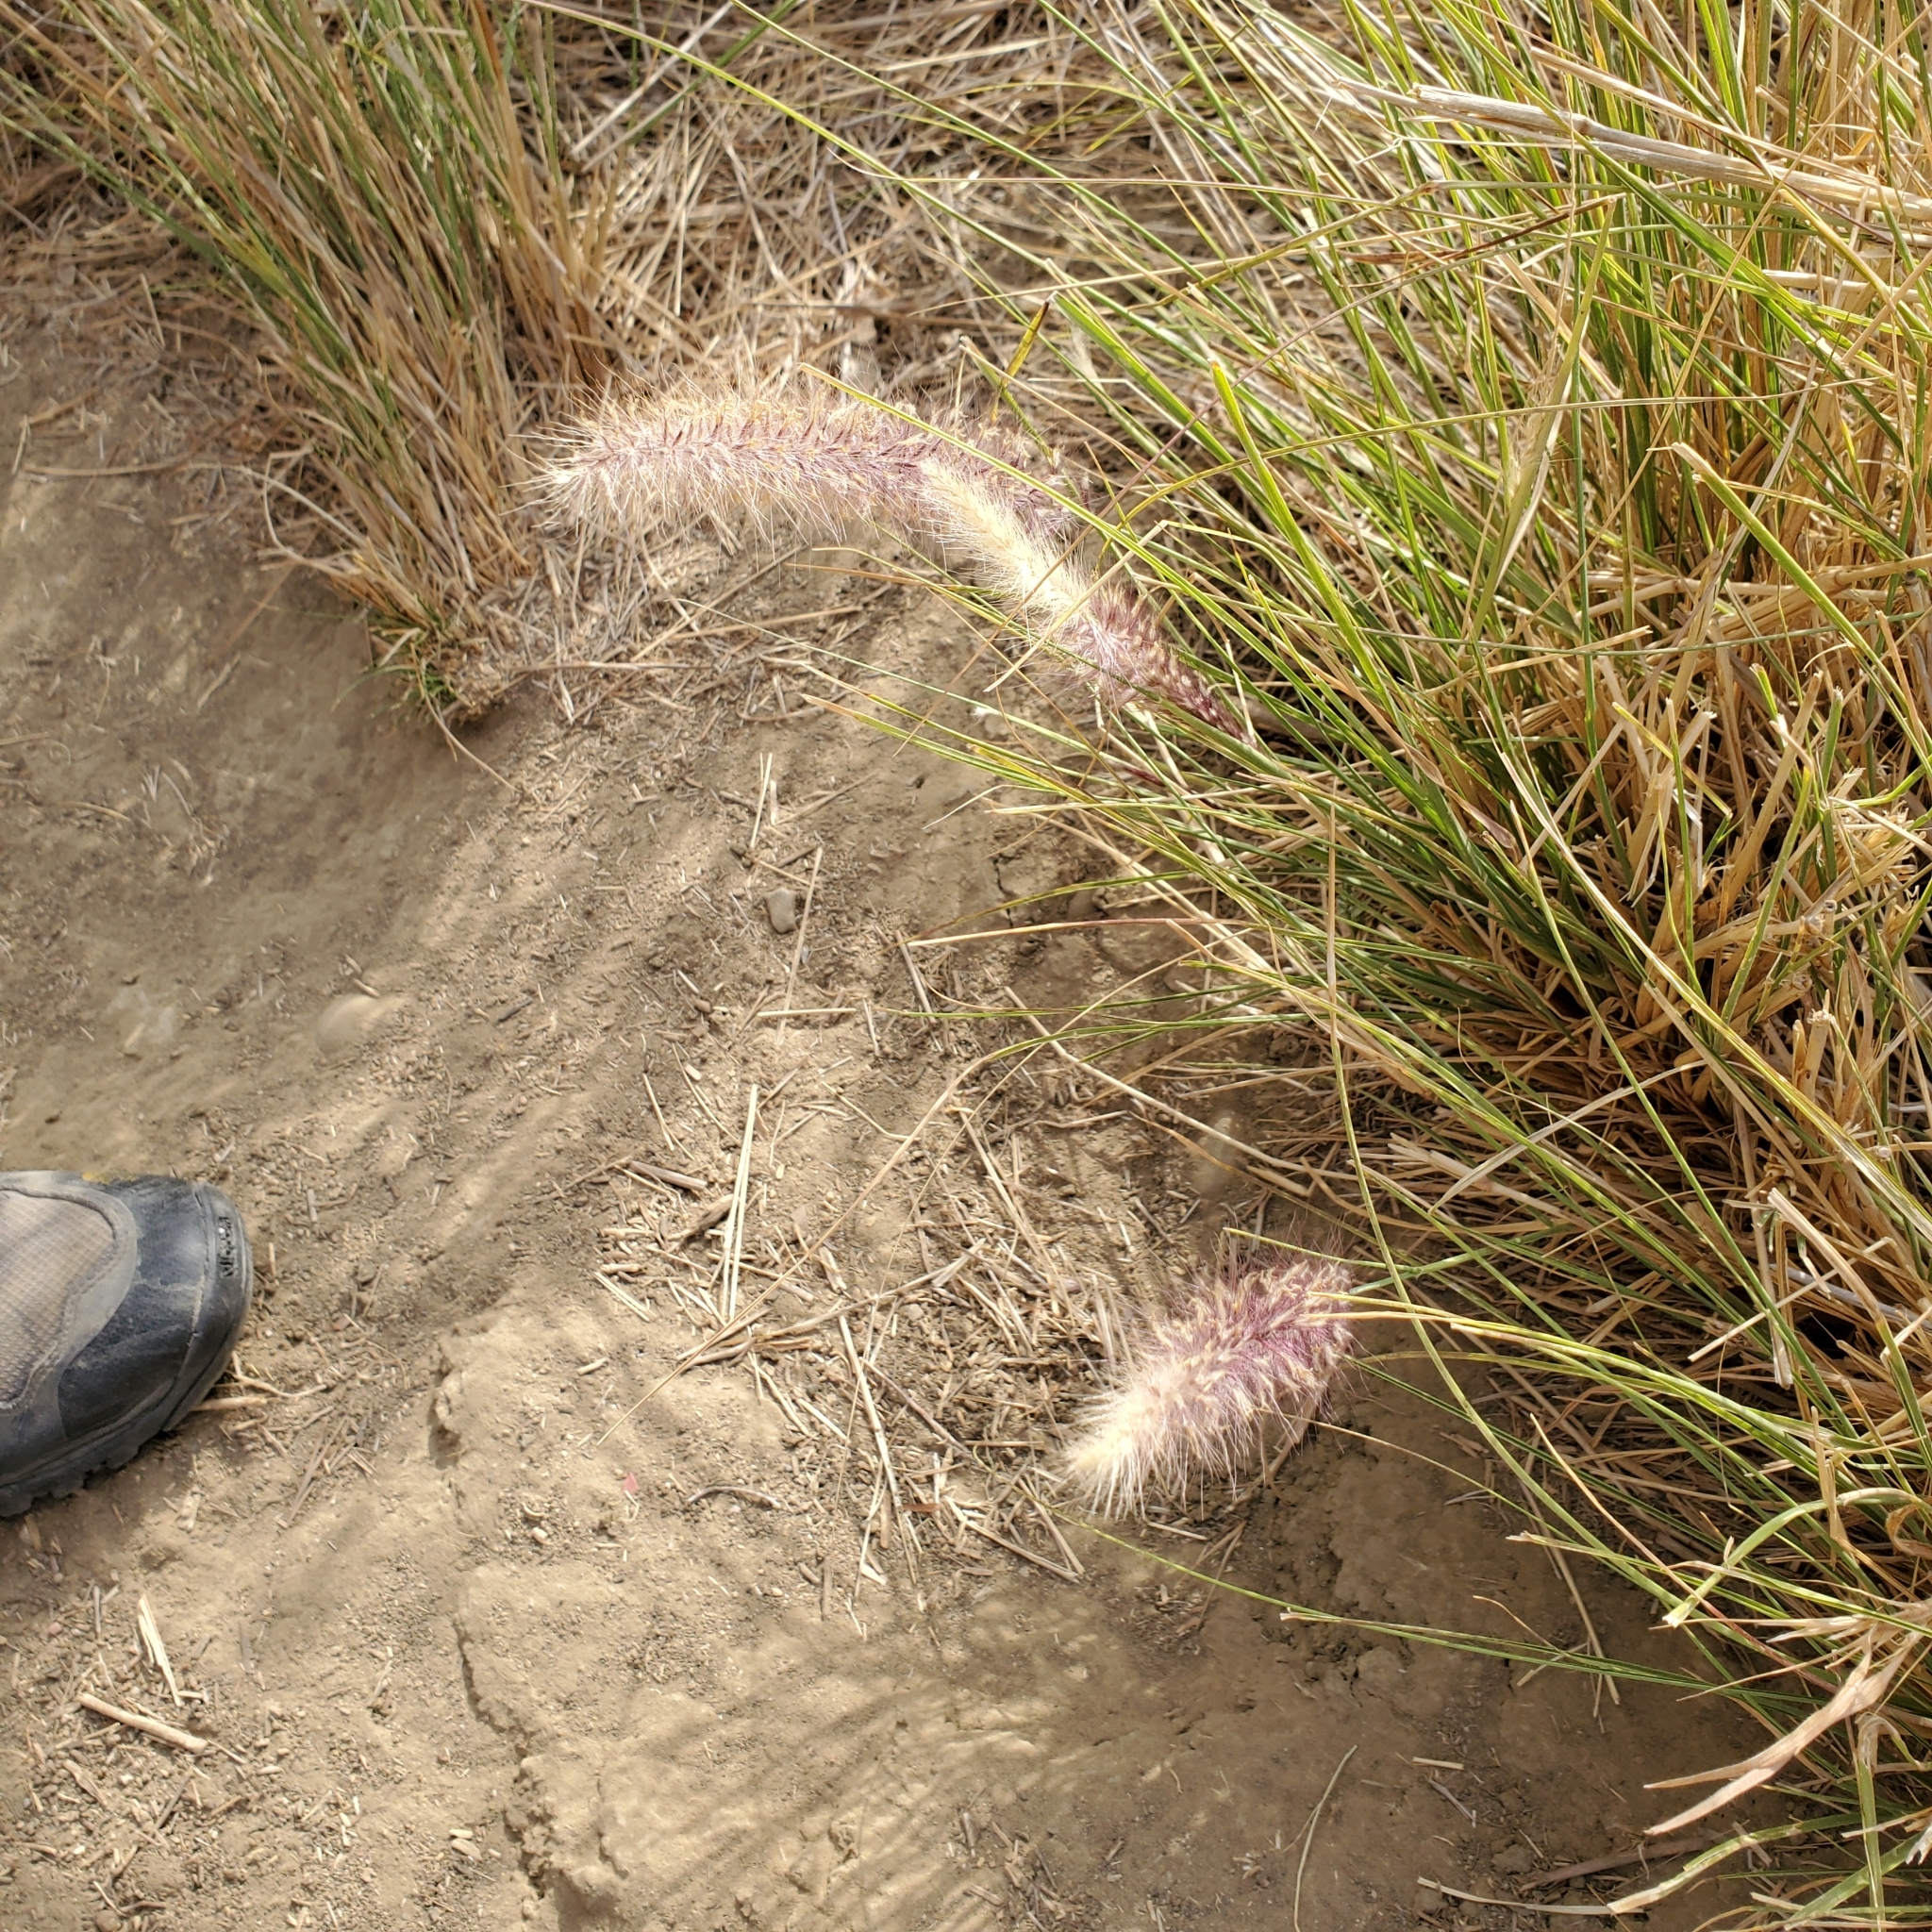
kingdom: Plantae
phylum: Tracheophyta
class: Liliopsida
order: Poales
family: Poaceae
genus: Cenchrus
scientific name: Cenchrus setaceus
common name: Crimson fountaingrass
